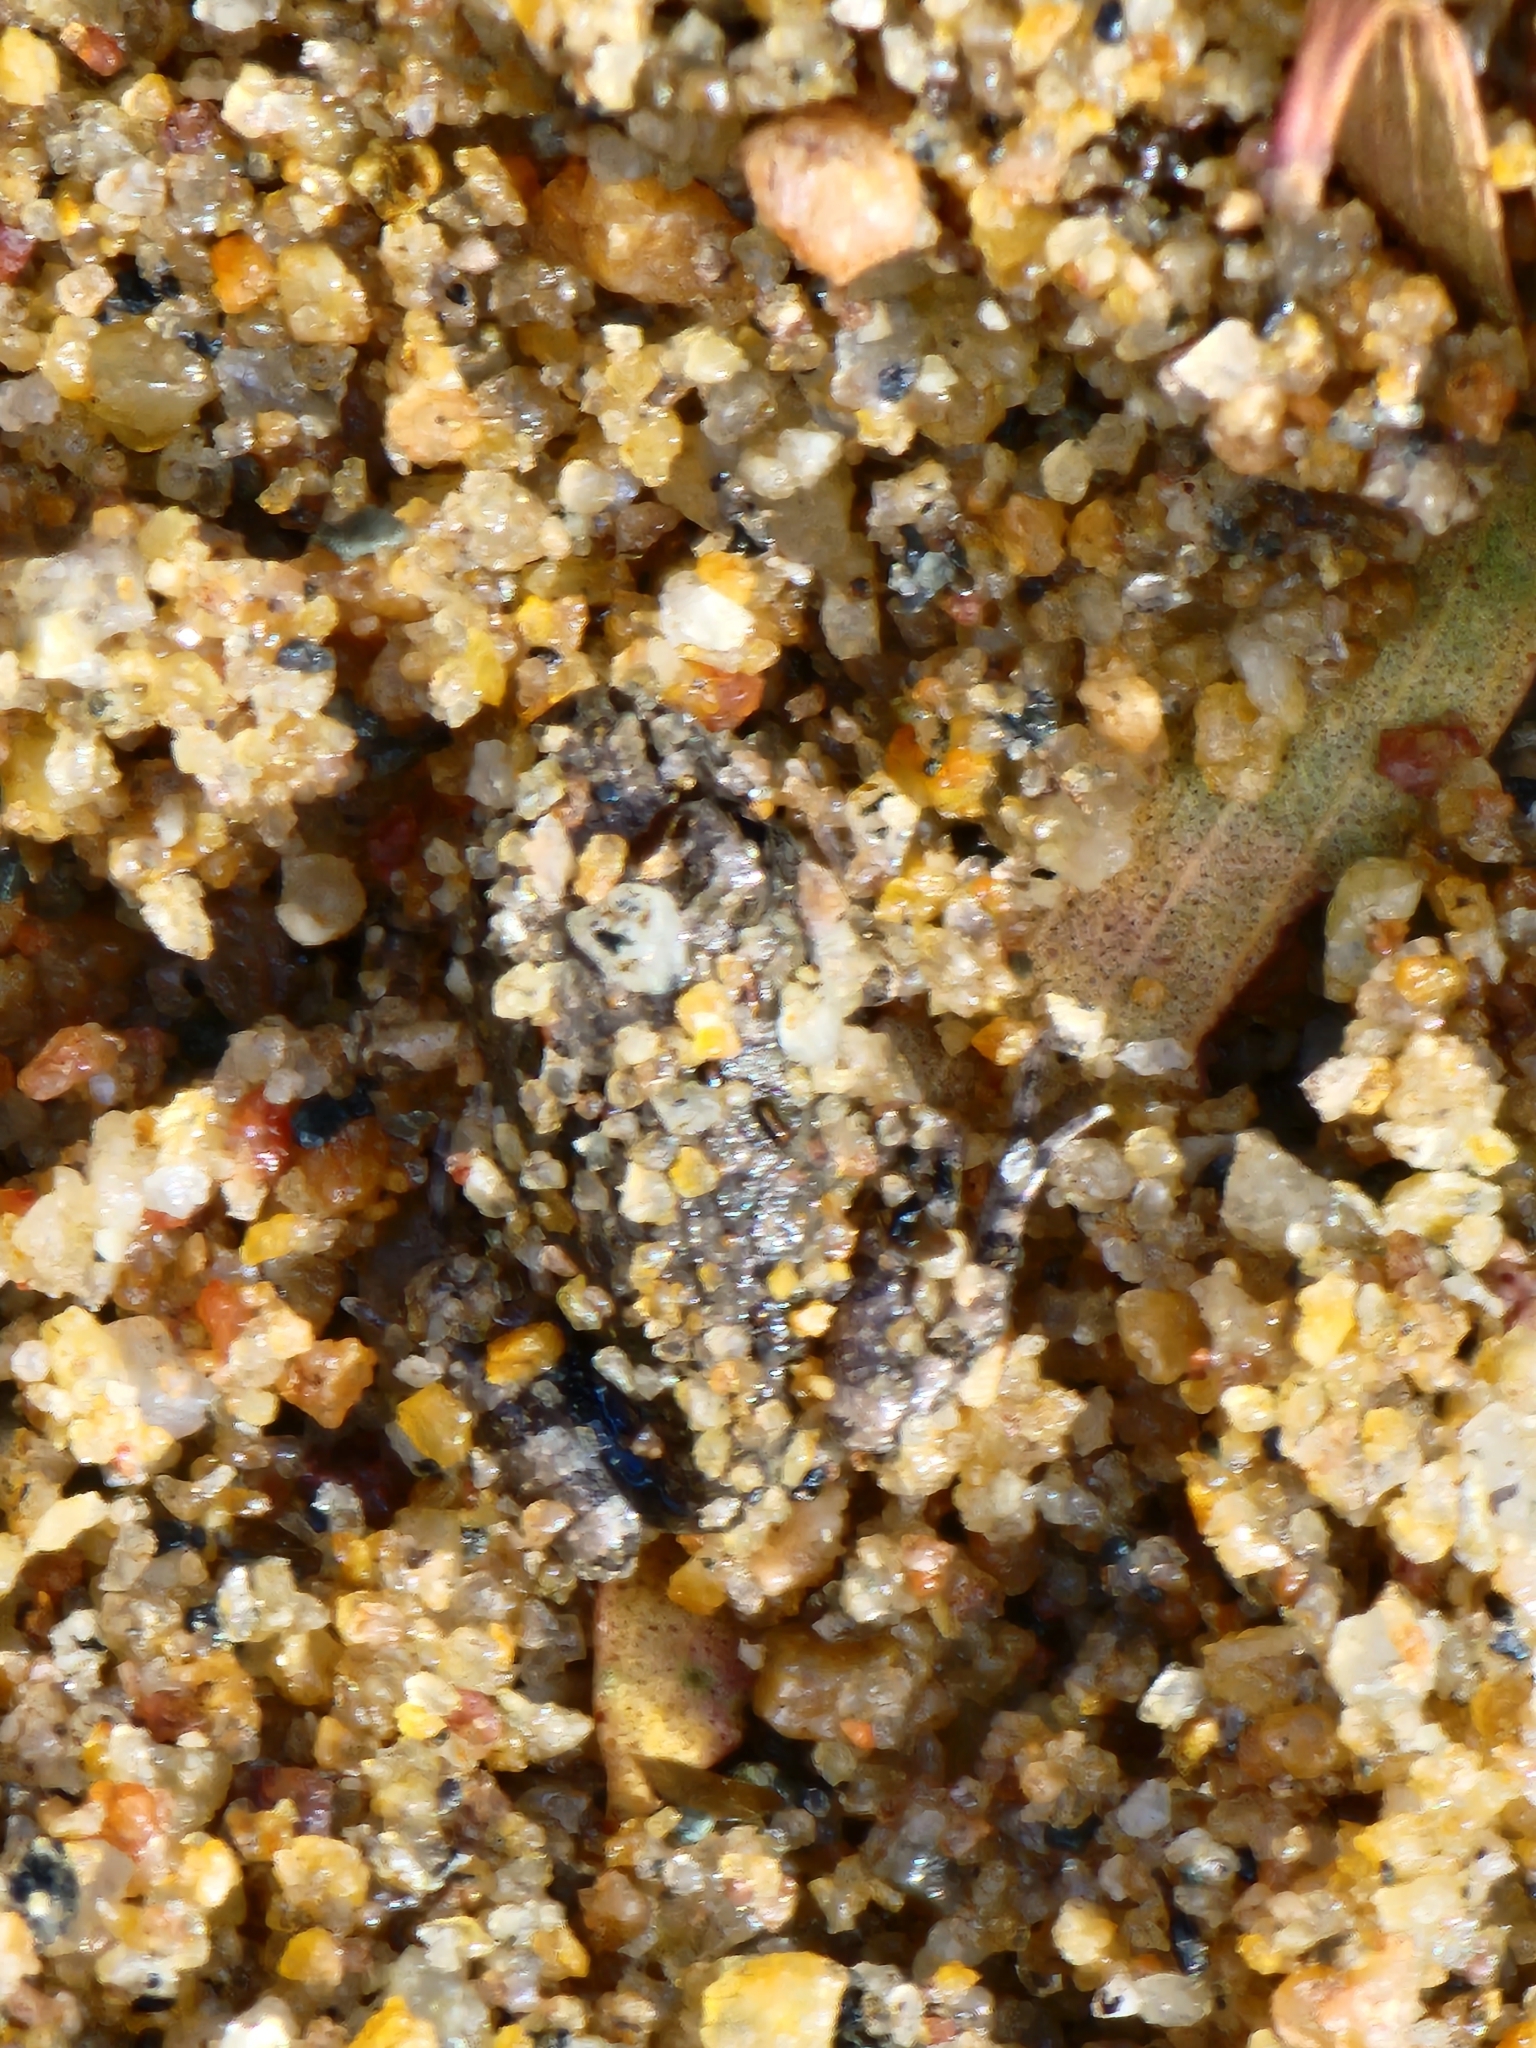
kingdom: Animalia
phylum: Chordata
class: Amphibia
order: Anura
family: Limnodynastidae
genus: Platyplectrum
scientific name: Platyplectrum ornatum
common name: Ornate burrowing frog
